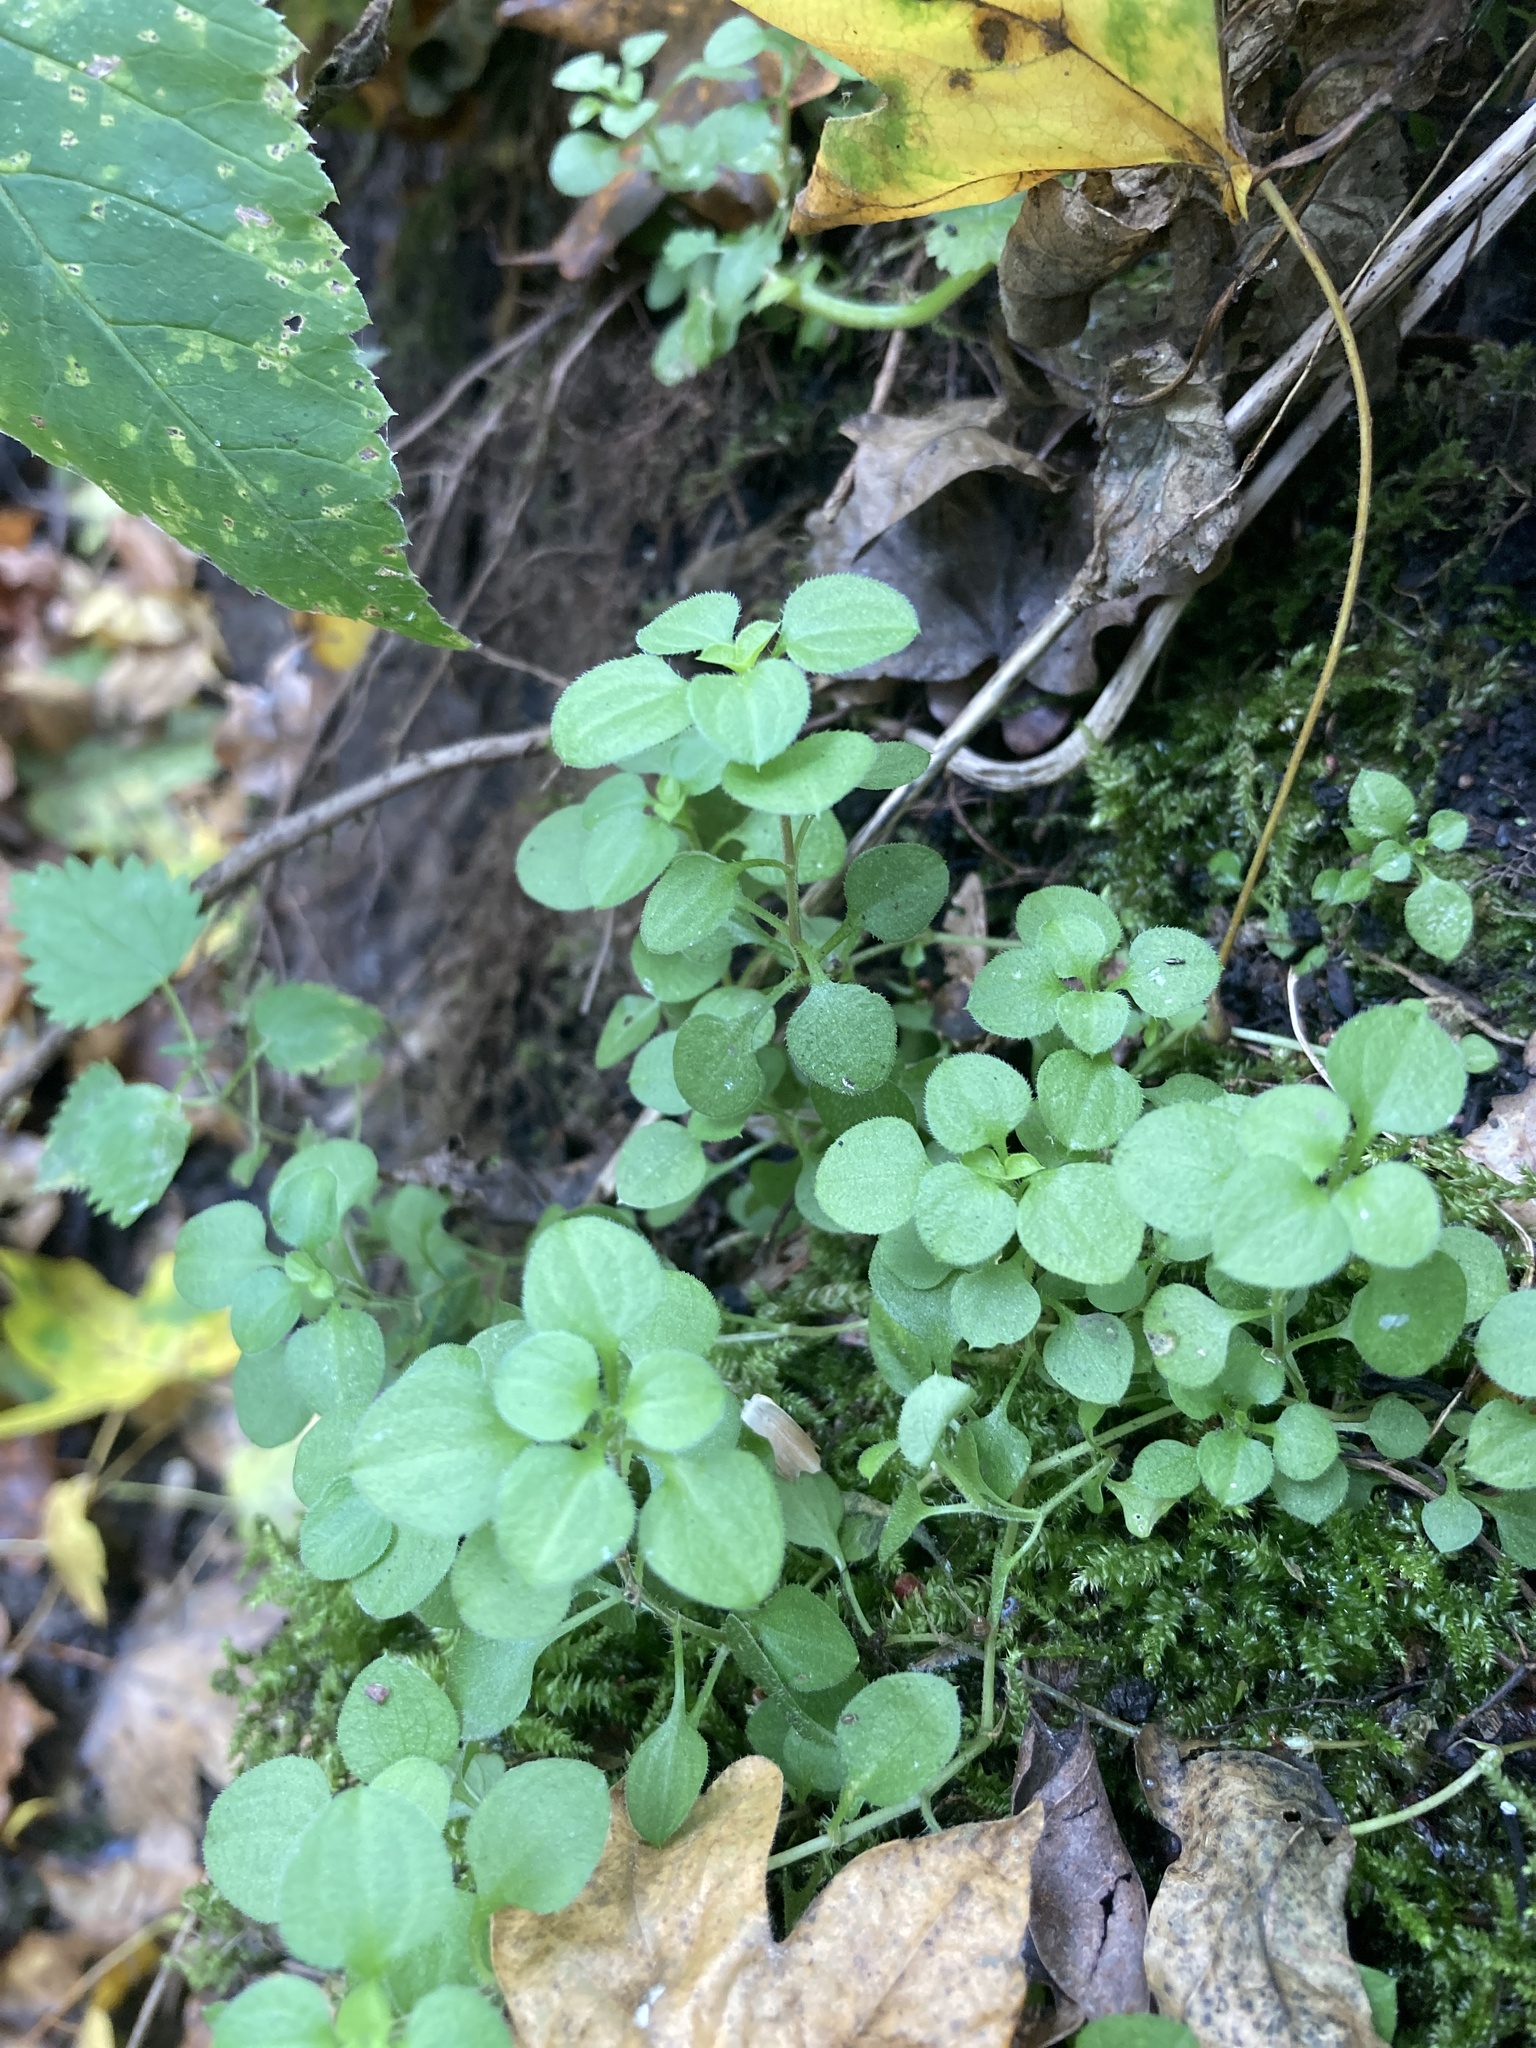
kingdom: Plantae
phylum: Tracheophyta
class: Magnoliopsida
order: Caryophyllales
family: Caryophyllaceae
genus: Moehringia
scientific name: Moehringia trinervia
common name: Three-nerved sandwort
